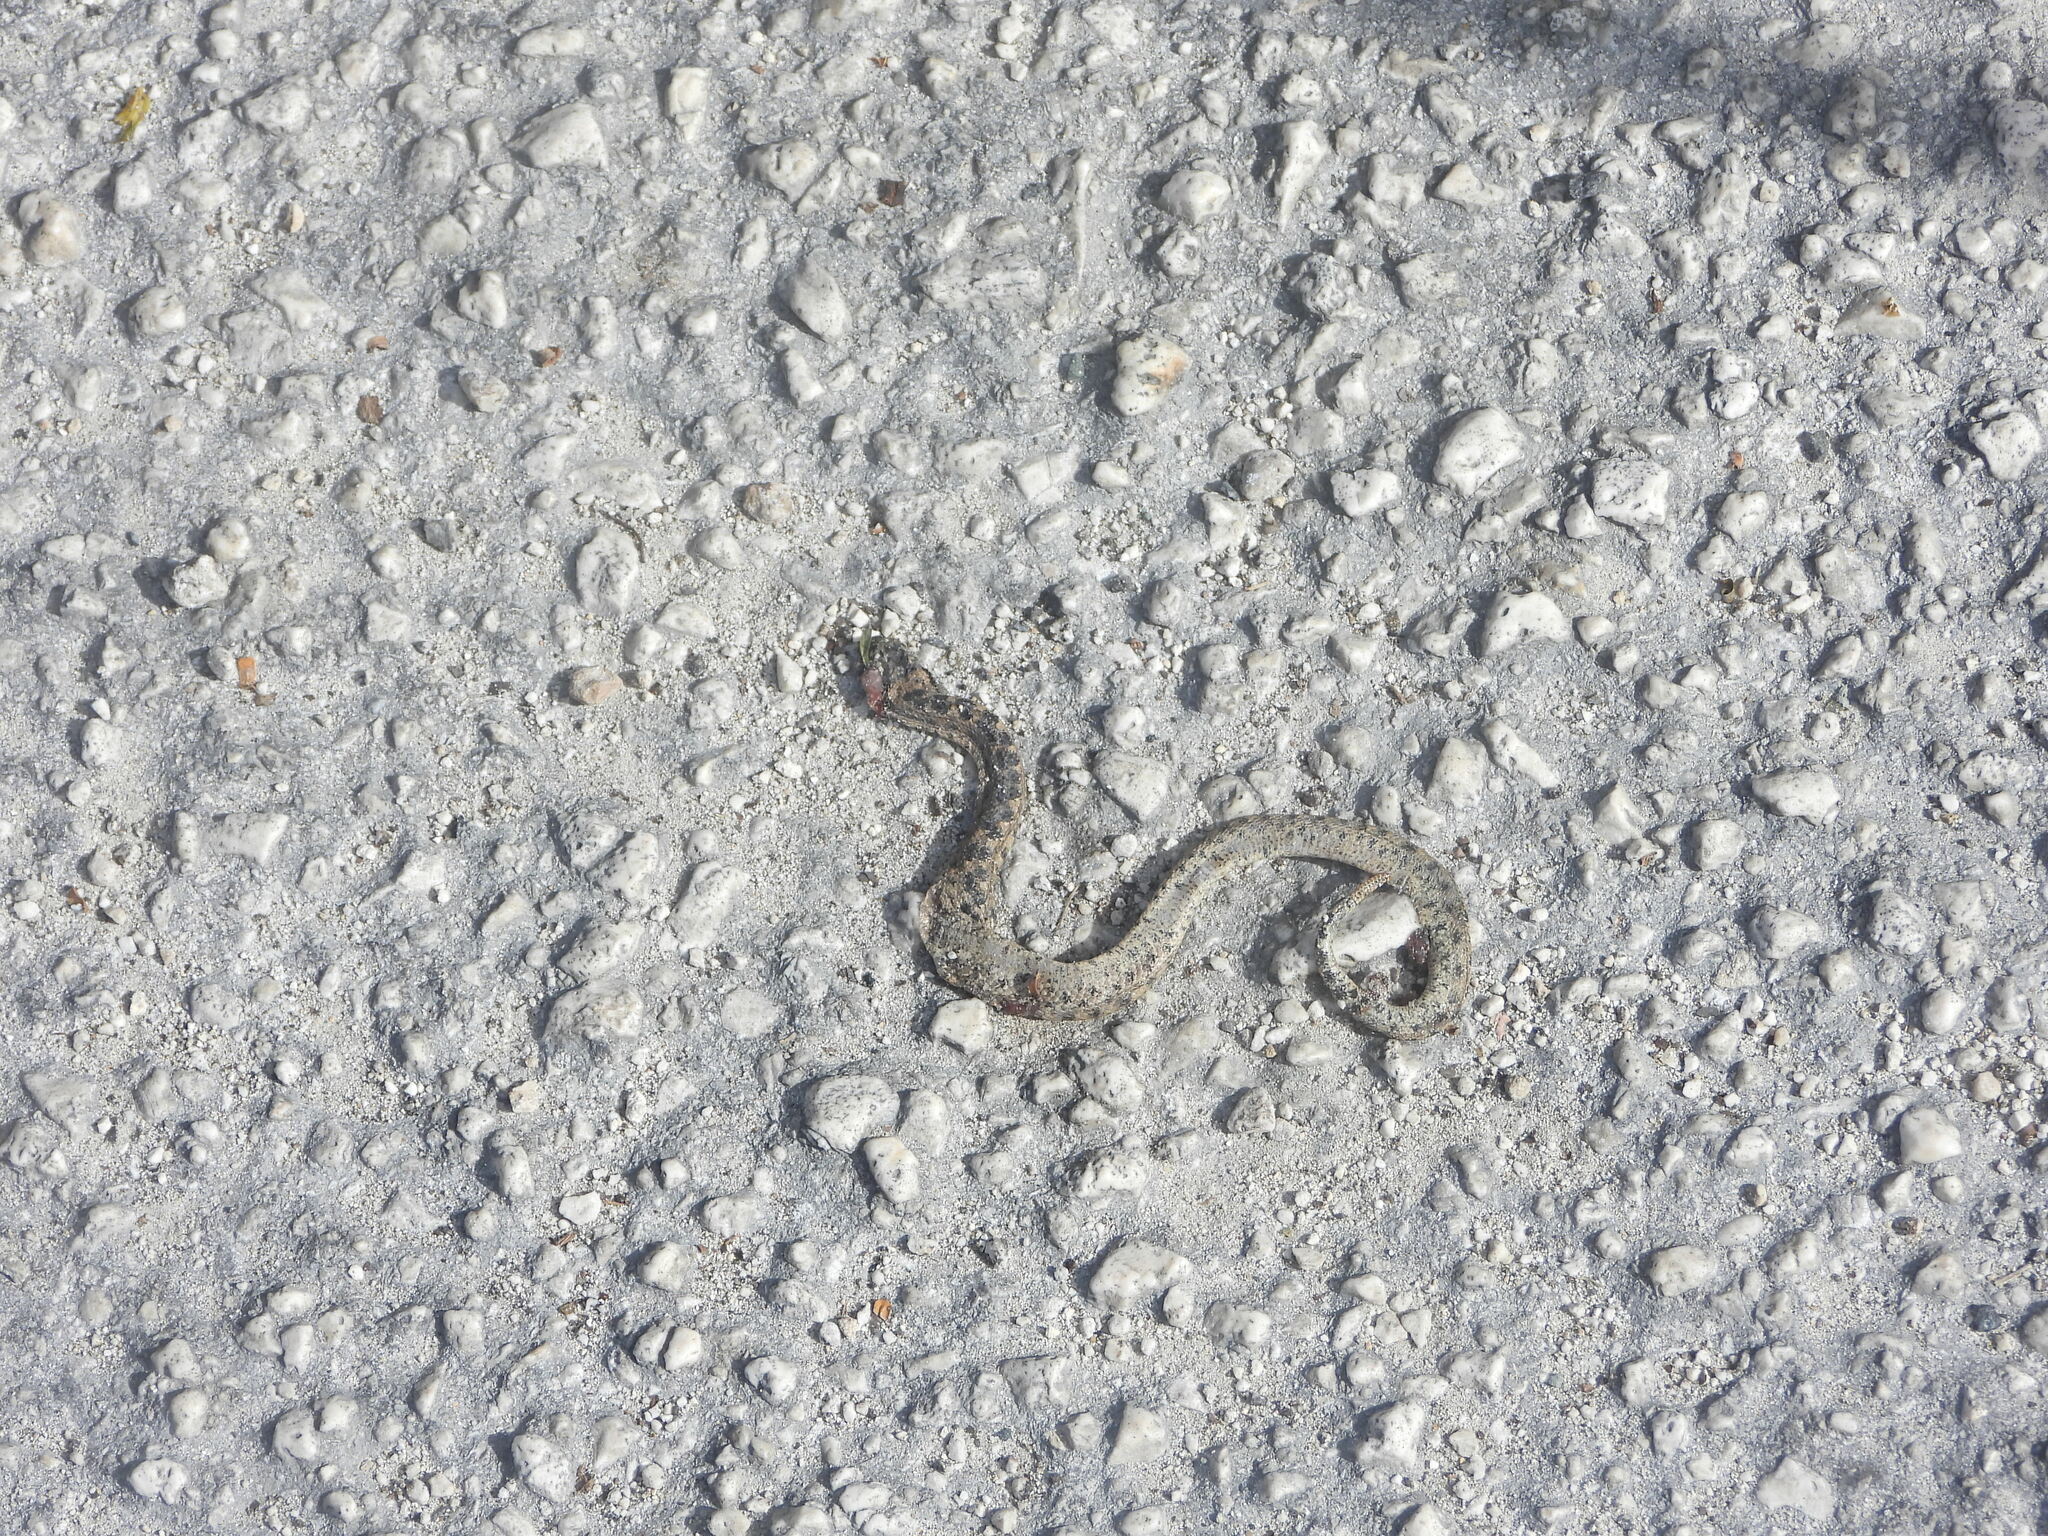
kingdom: Animalia
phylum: Chordata
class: Squamata
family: Tropidophiidae
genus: Tropidophis
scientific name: Tropidophis caymanensis
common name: Cayman islands dwarf boa
